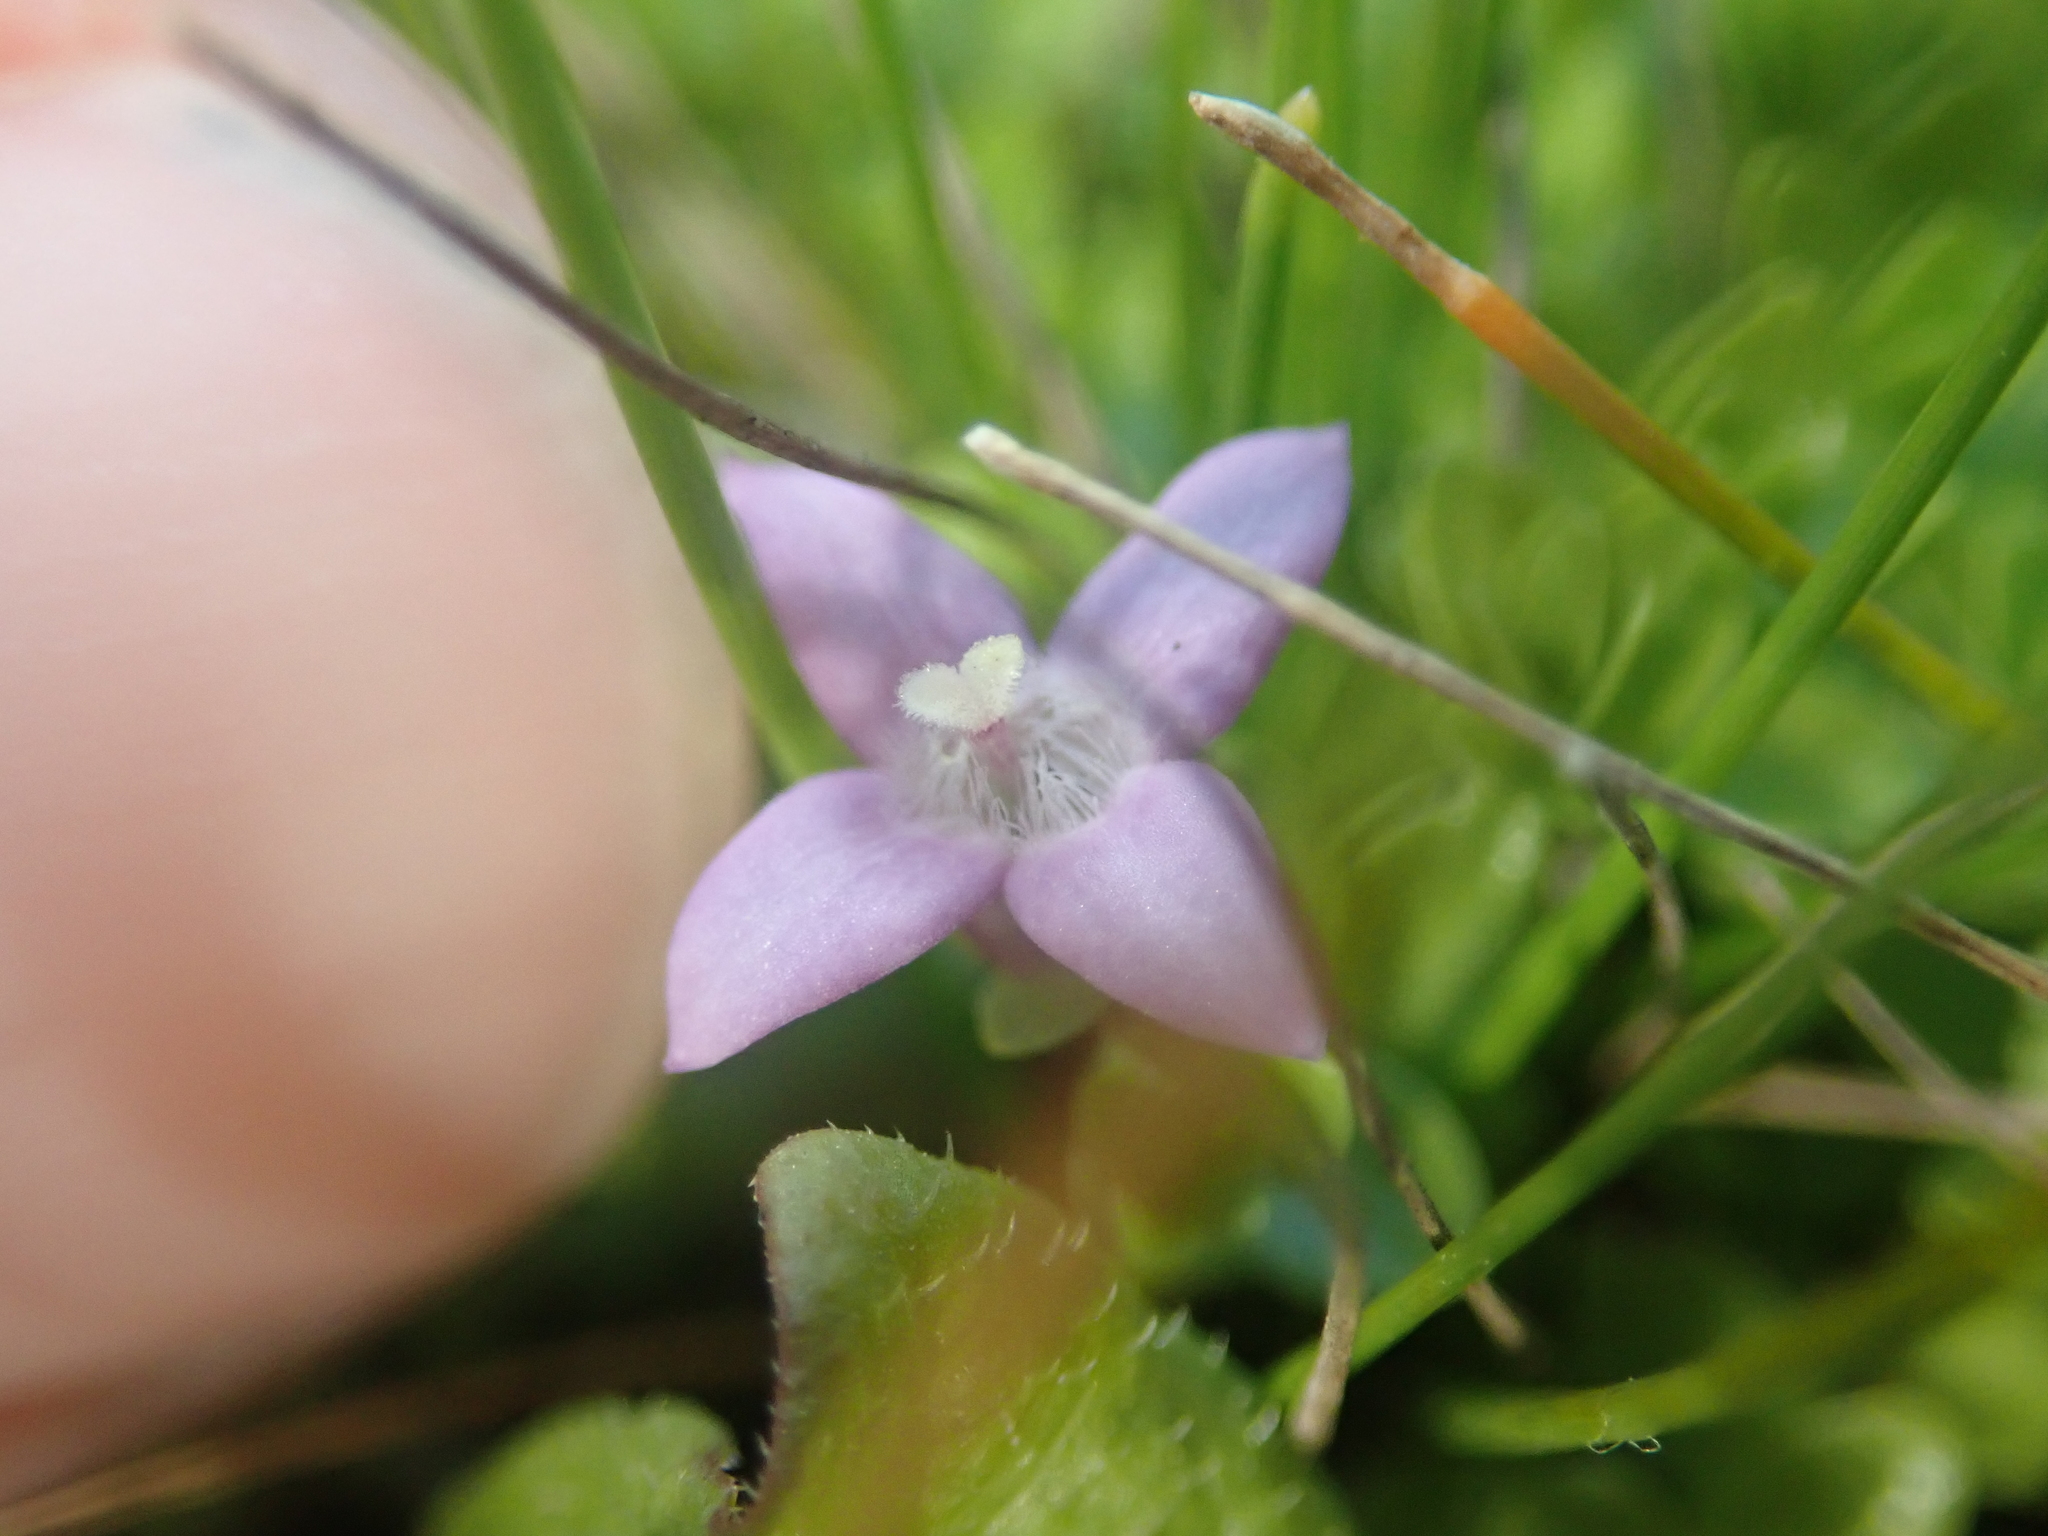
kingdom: Plantae
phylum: Tracheophyta
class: Magnoliopsida
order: Gentianales
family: Rubiaceae
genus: Oldenlandia
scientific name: Oldenlandia salzmannii
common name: Salzmann's mille graines
